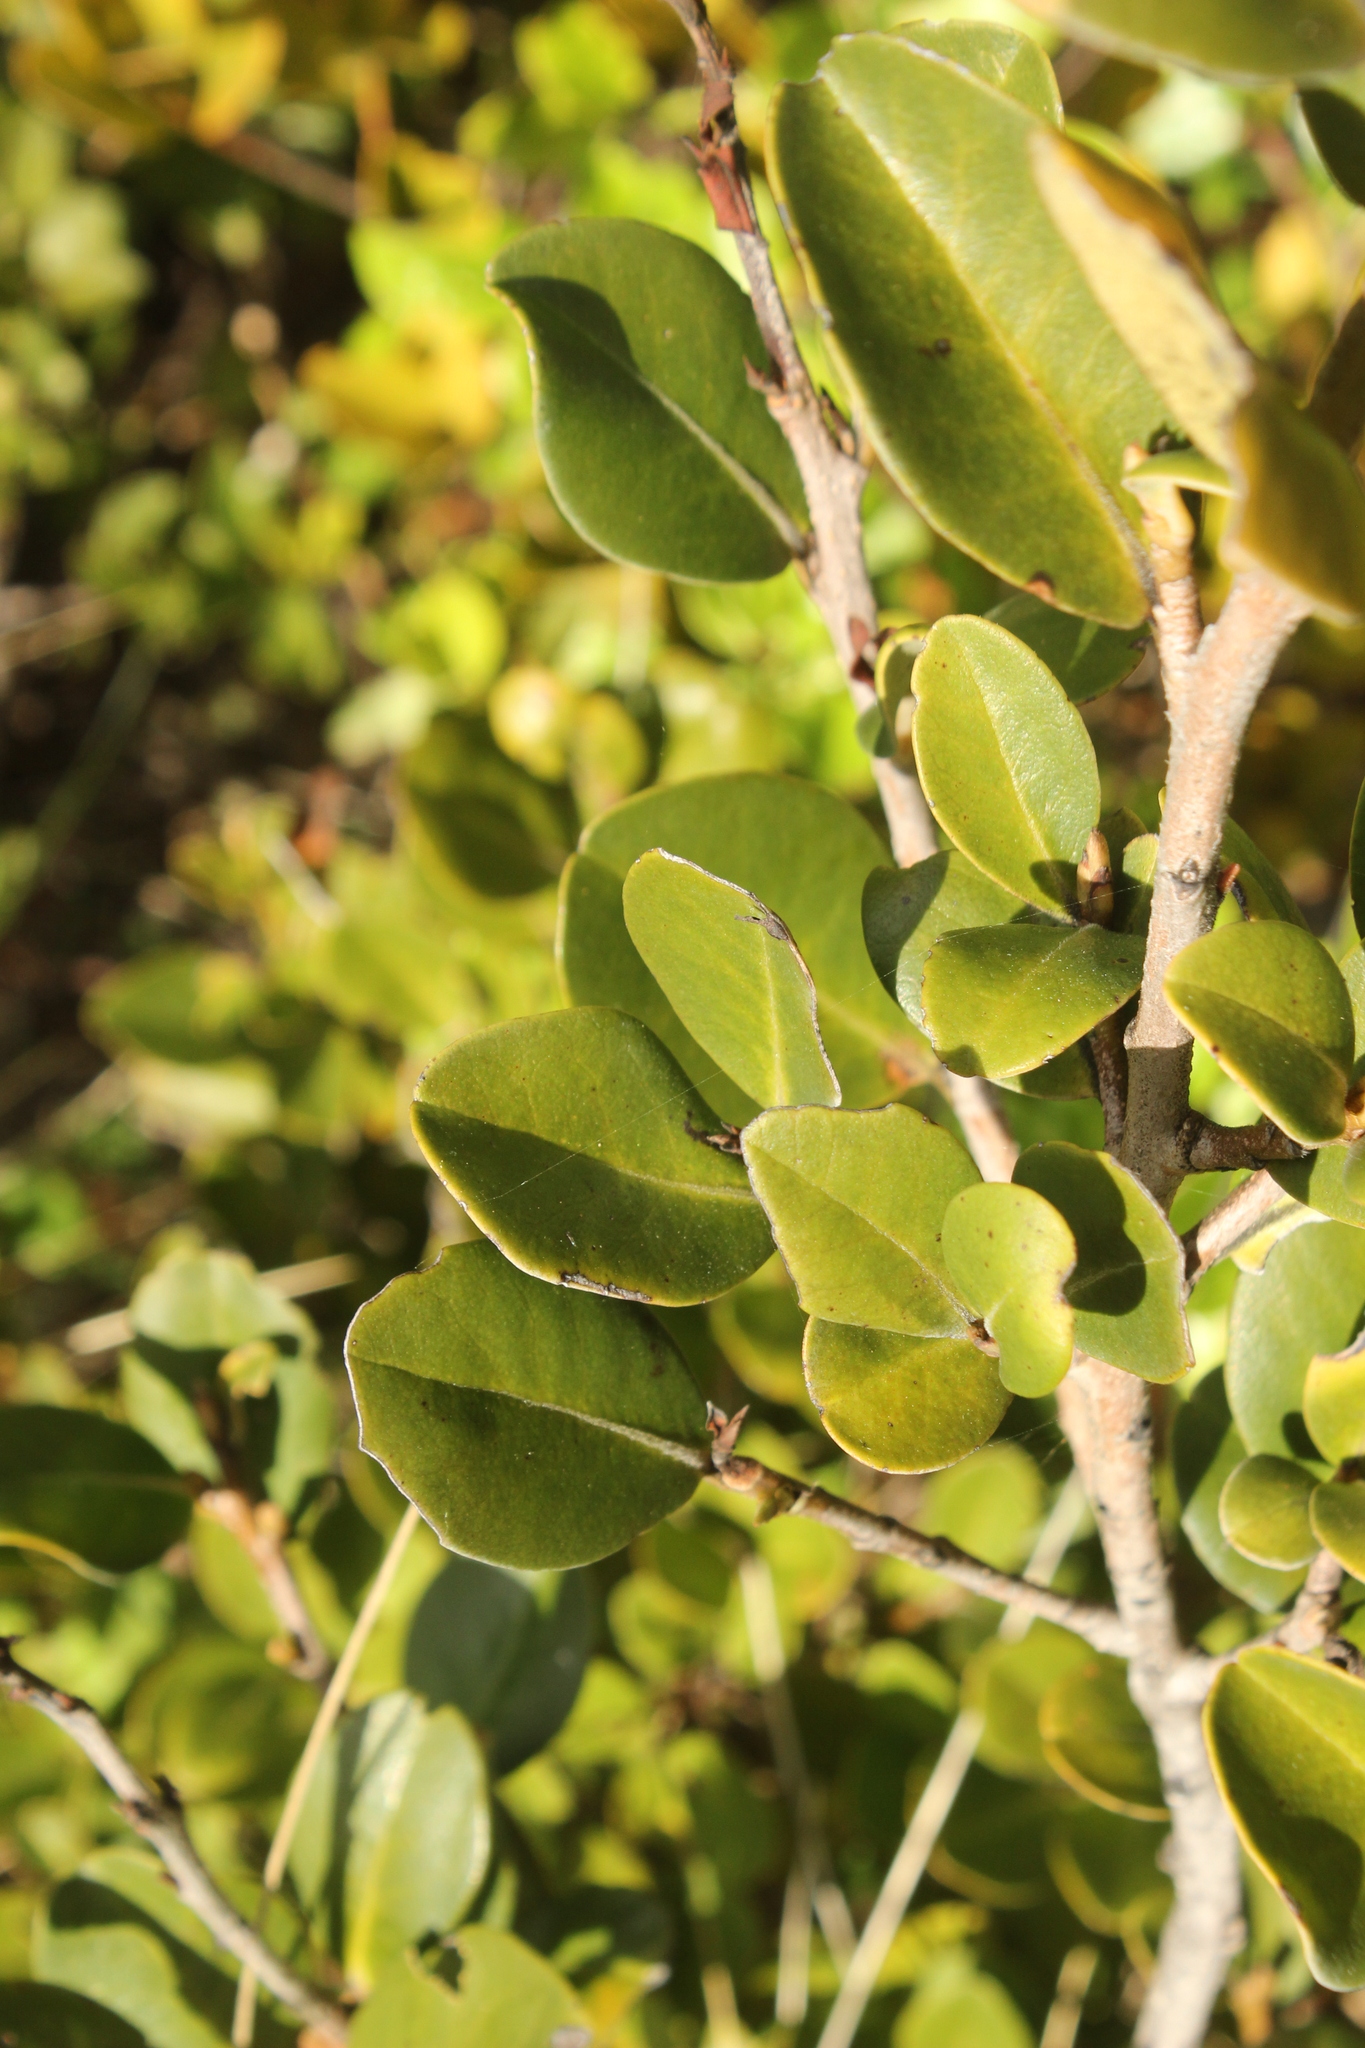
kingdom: Plantae
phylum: Tracheophyta
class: Magnoliopsida
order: Ericales
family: Primulaceae
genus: Myrsine
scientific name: Myrsine chathamica
